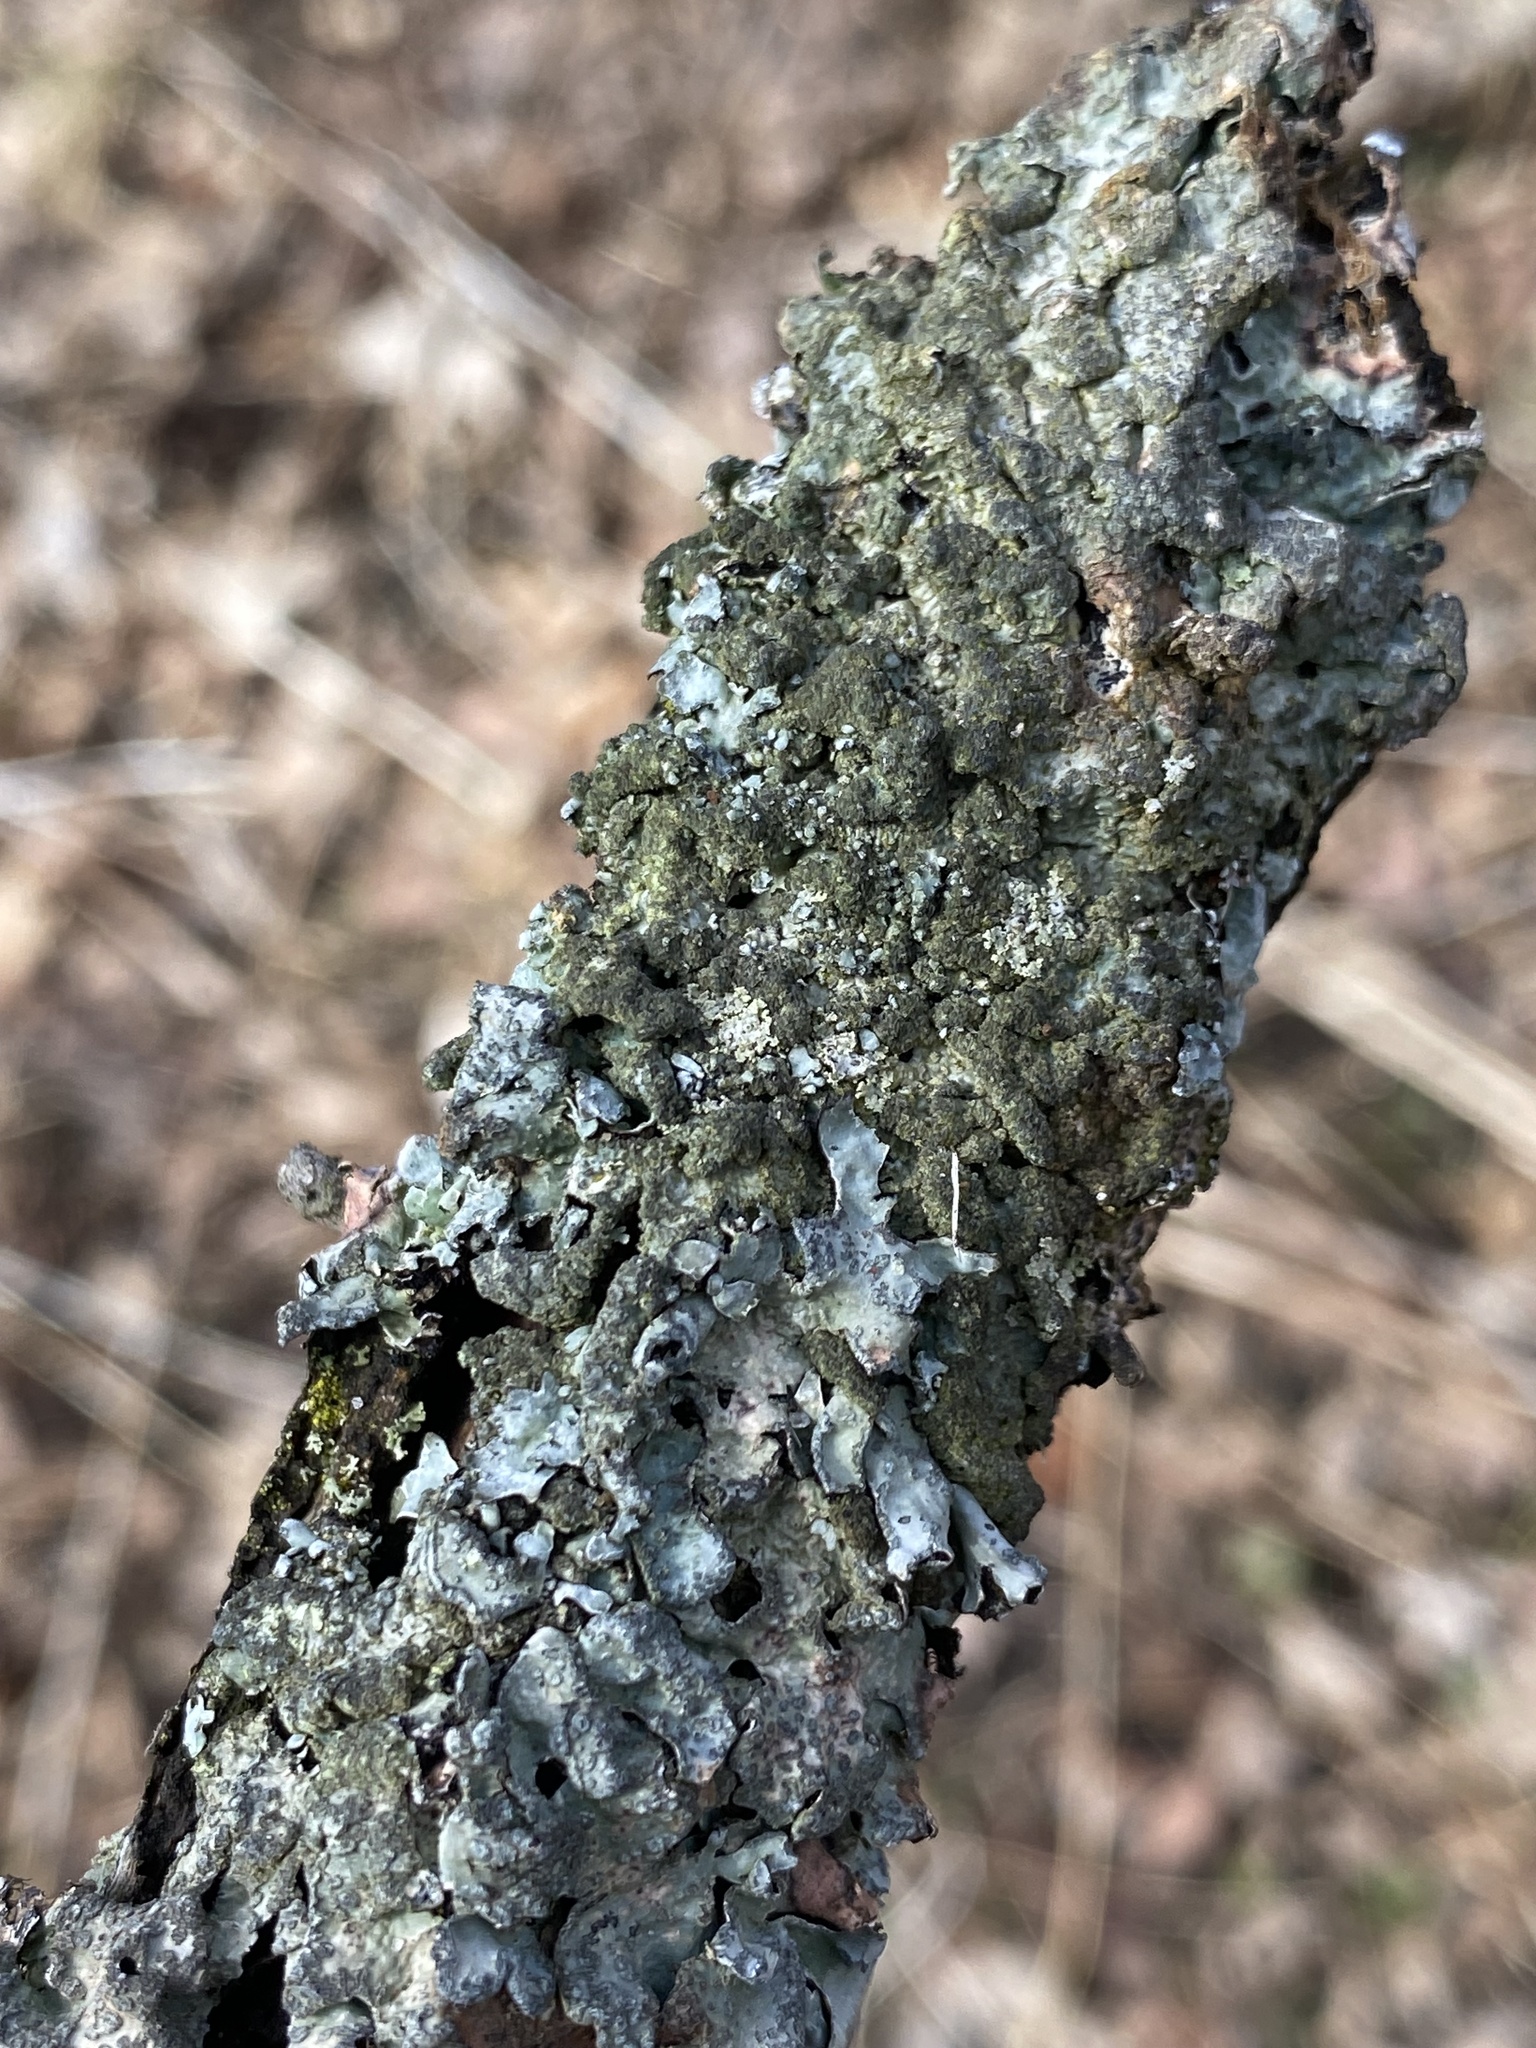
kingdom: Fungi
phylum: Ascomycota
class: Lecanoromycetes
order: Lecanorales
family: Parmeliaceae
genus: Parmelia
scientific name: Parmelia sulcata
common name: Netted shield lichen
